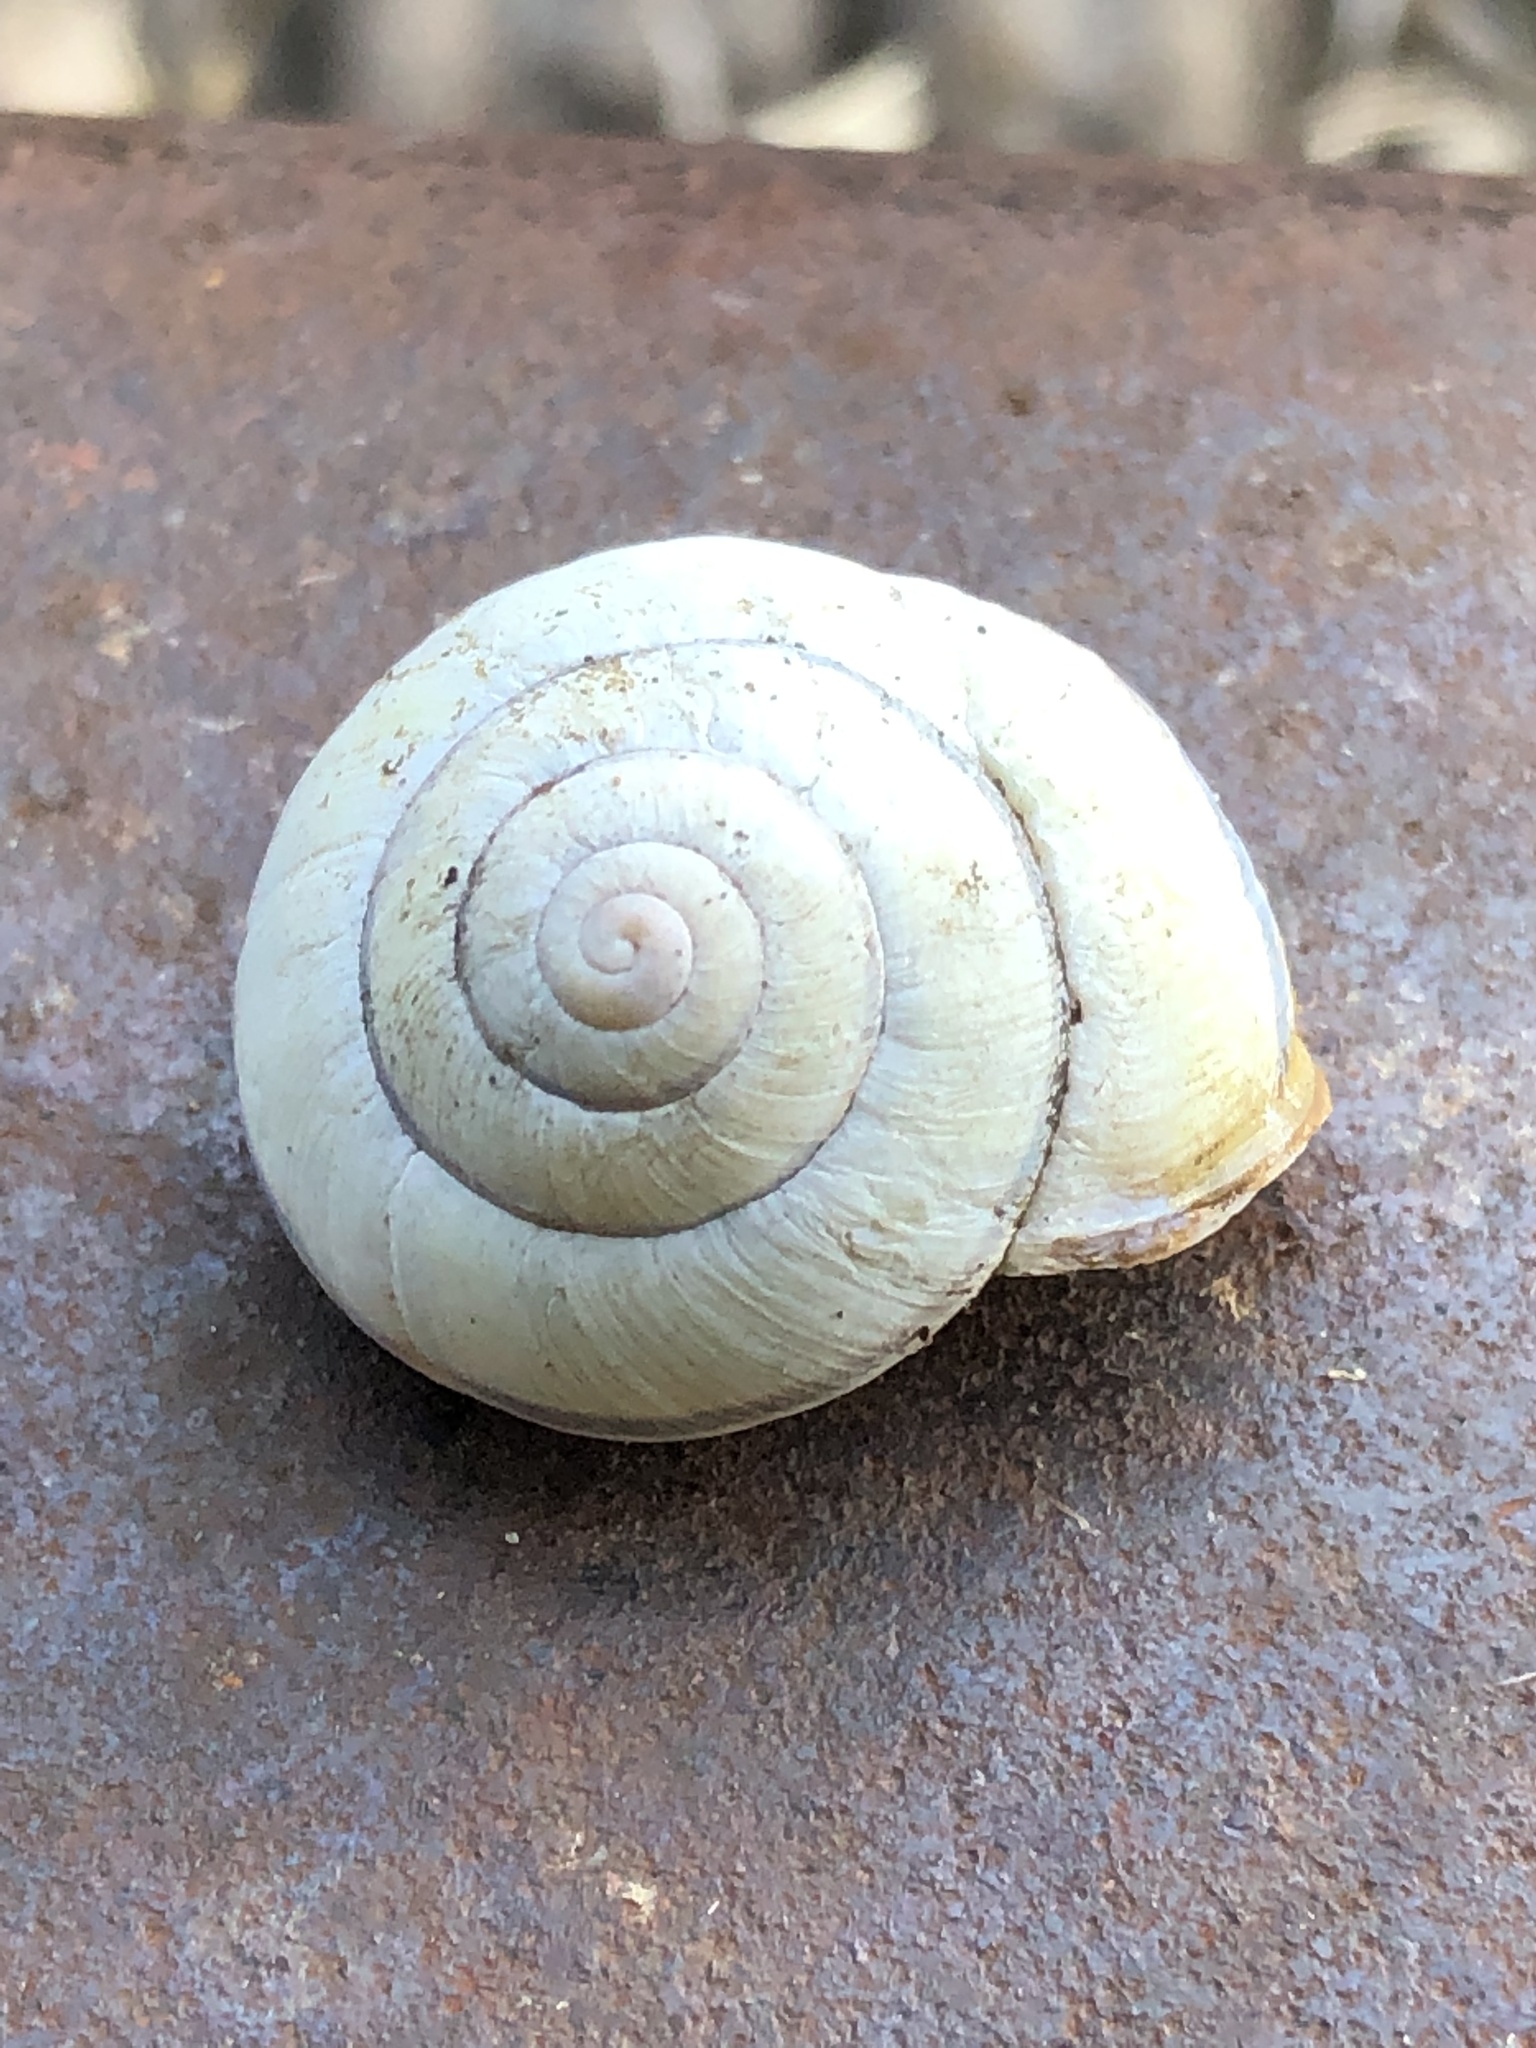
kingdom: Animalia
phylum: Mollusca
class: Gastropoda
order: Stylommatophora
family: Helicidae
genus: Cepaea
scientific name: Cepaea nemoralis
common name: Grovesnail
